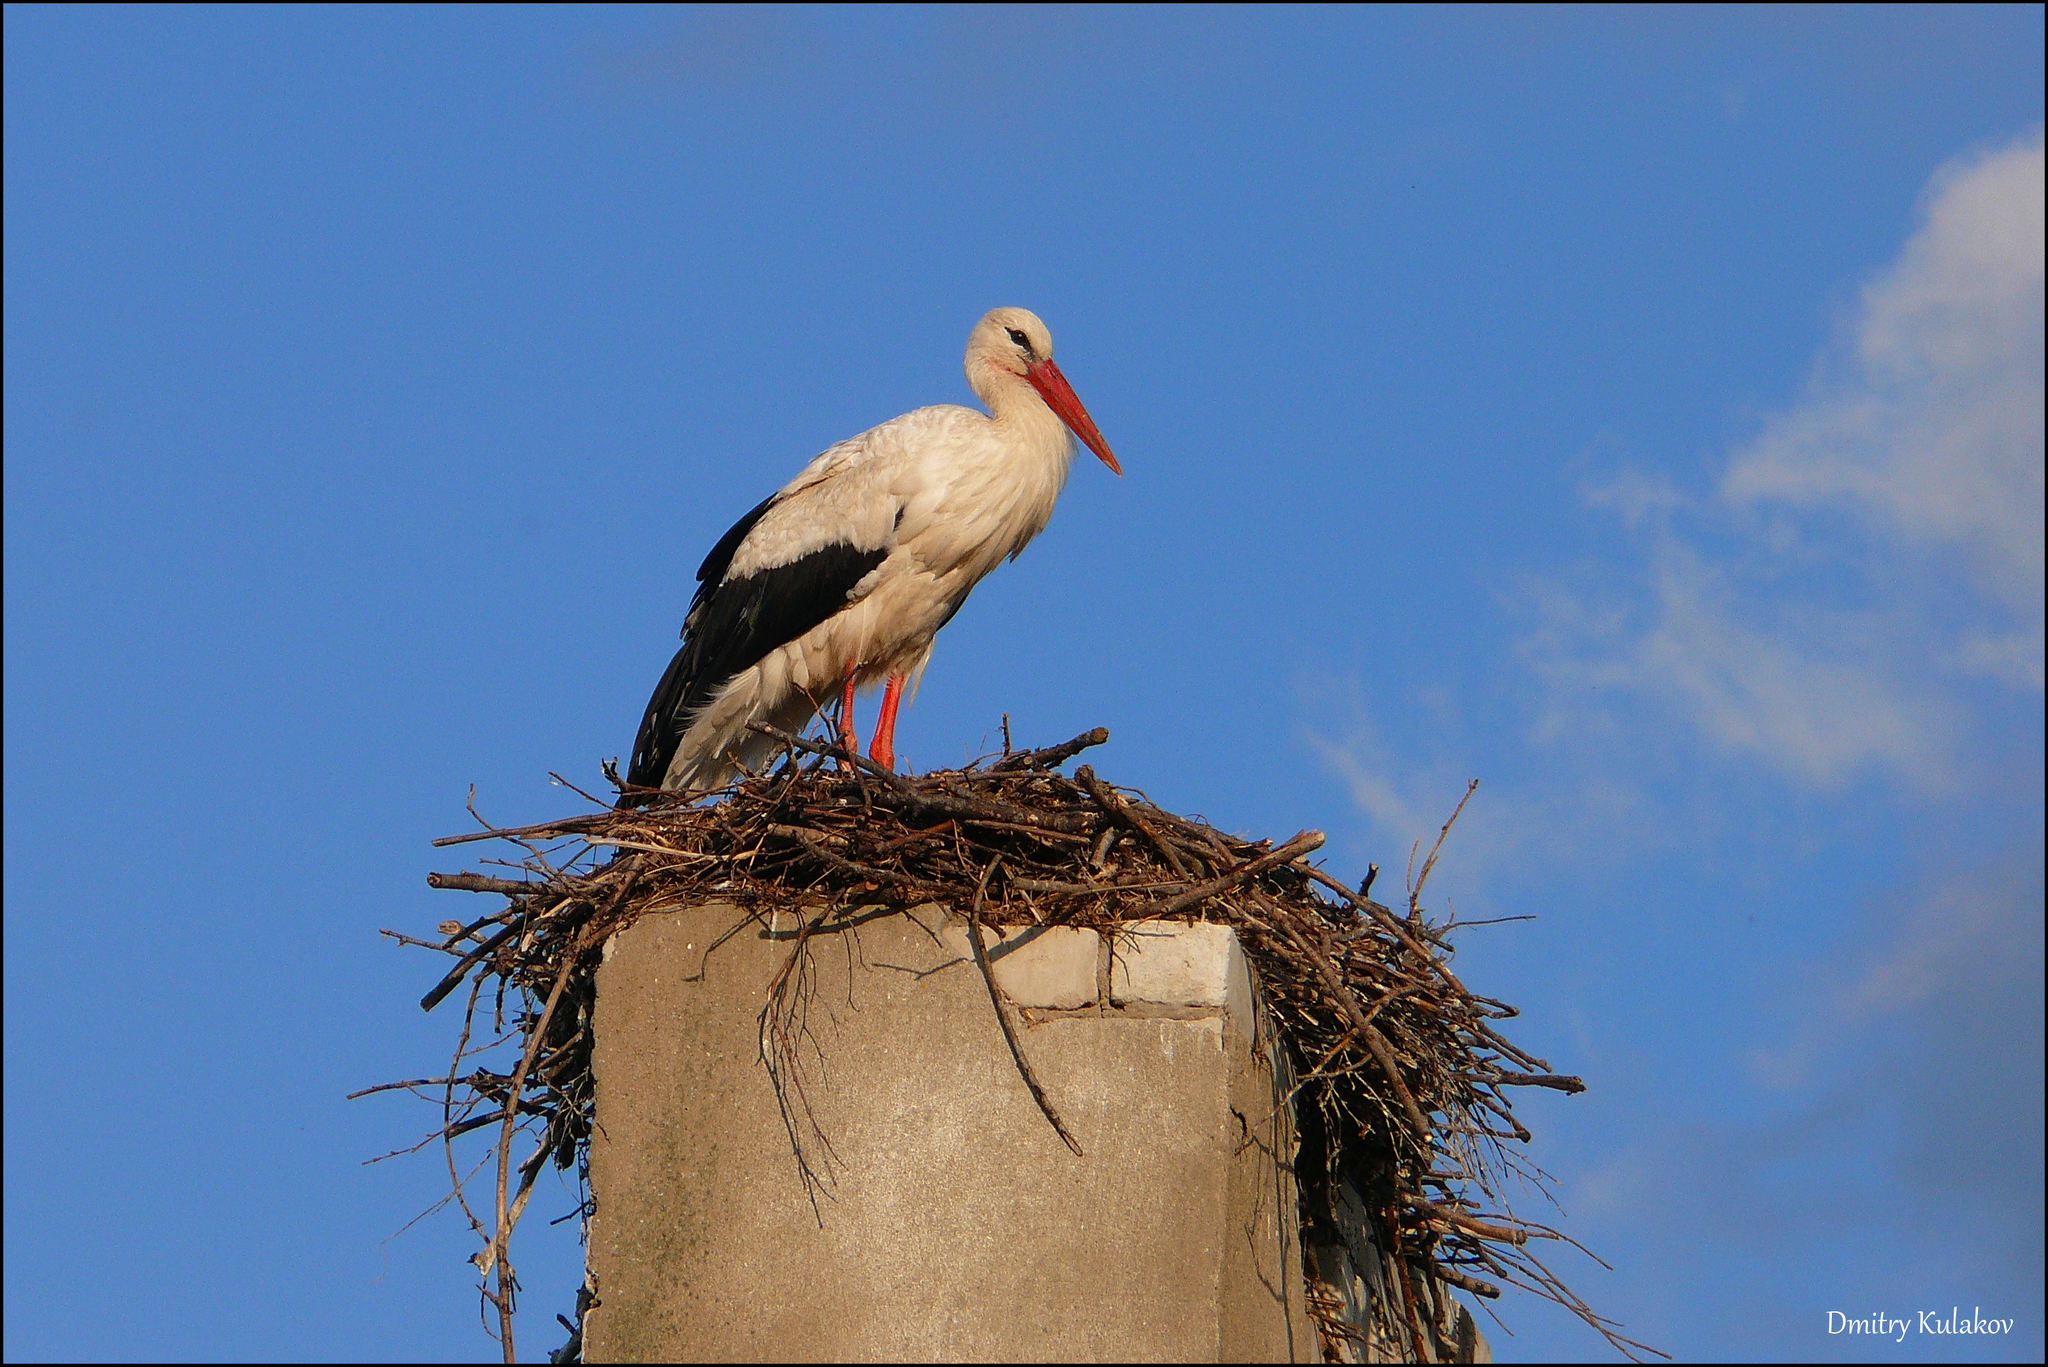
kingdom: Animalia
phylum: Chordata
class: Aves
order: Ciconiiformes
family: Ciconiidae
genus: Ciconia
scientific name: Ciconia ciconia
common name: White stork
